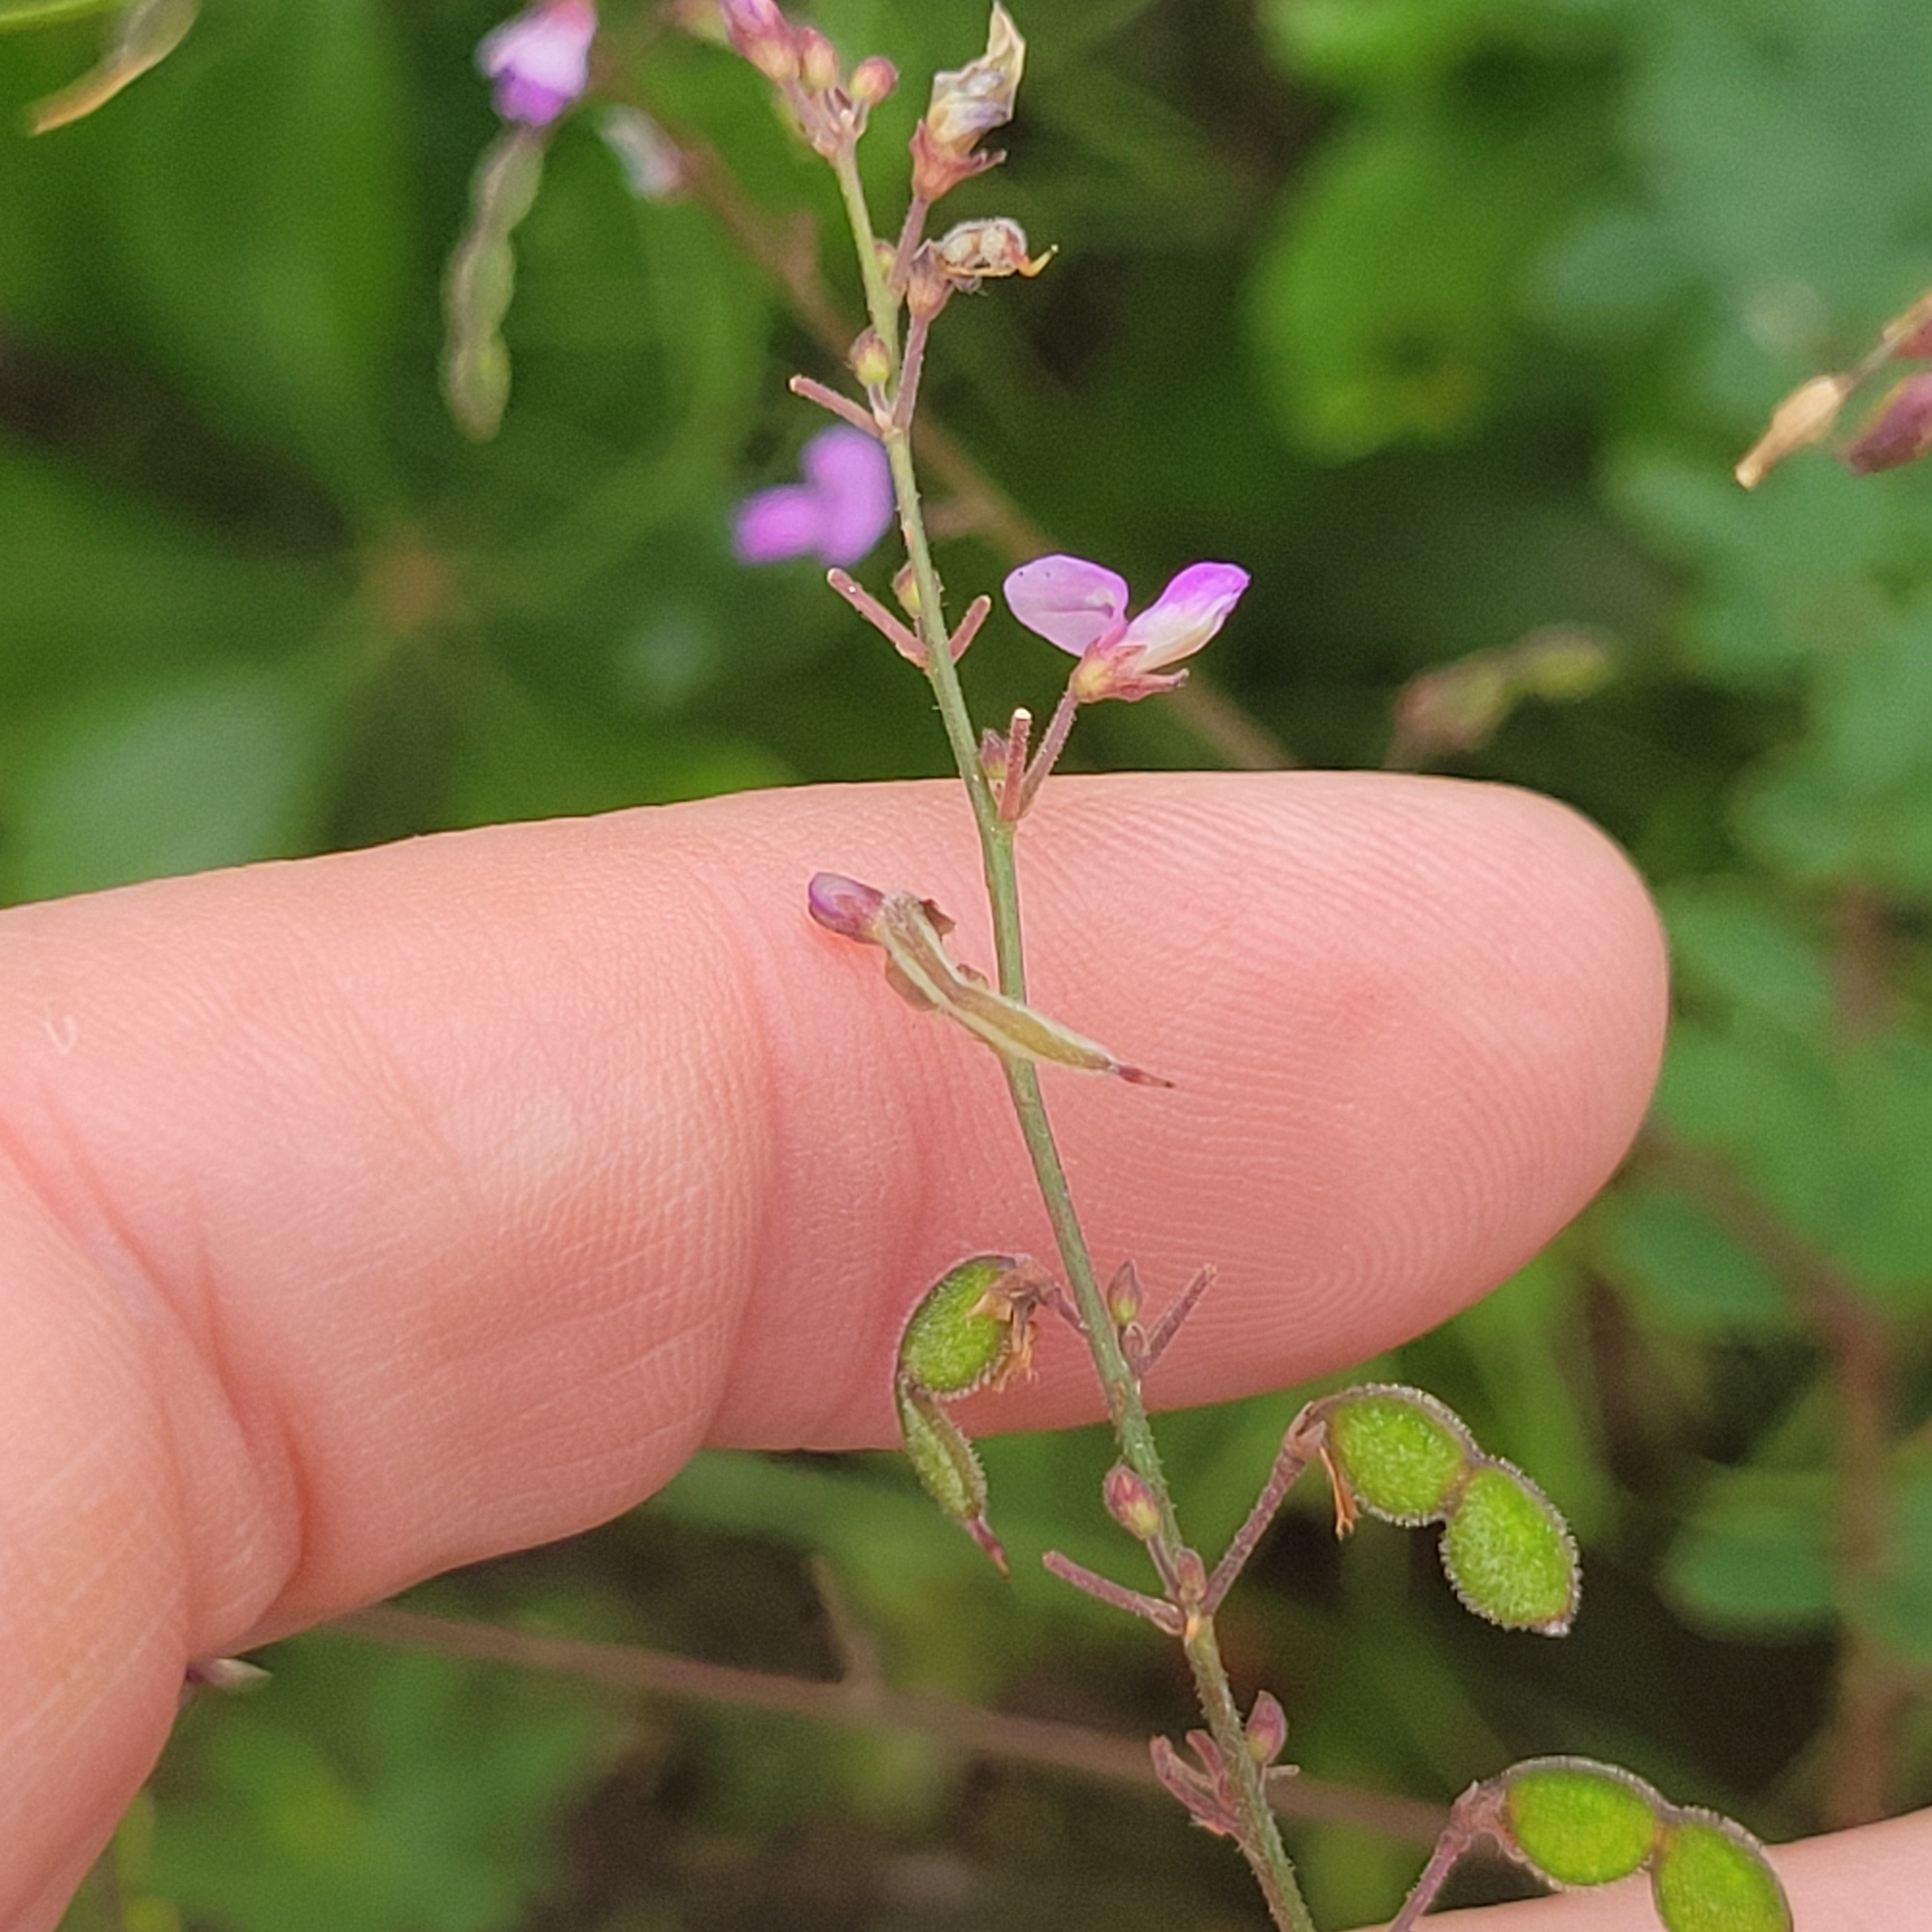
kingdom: Plantae
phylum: Tracheophyta
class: Magnoliopsida
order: Fabales
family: Fabaceae
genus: Desmodium
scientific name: Desmodium ciliare
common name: Hairy small-leaf ticktrefoil
